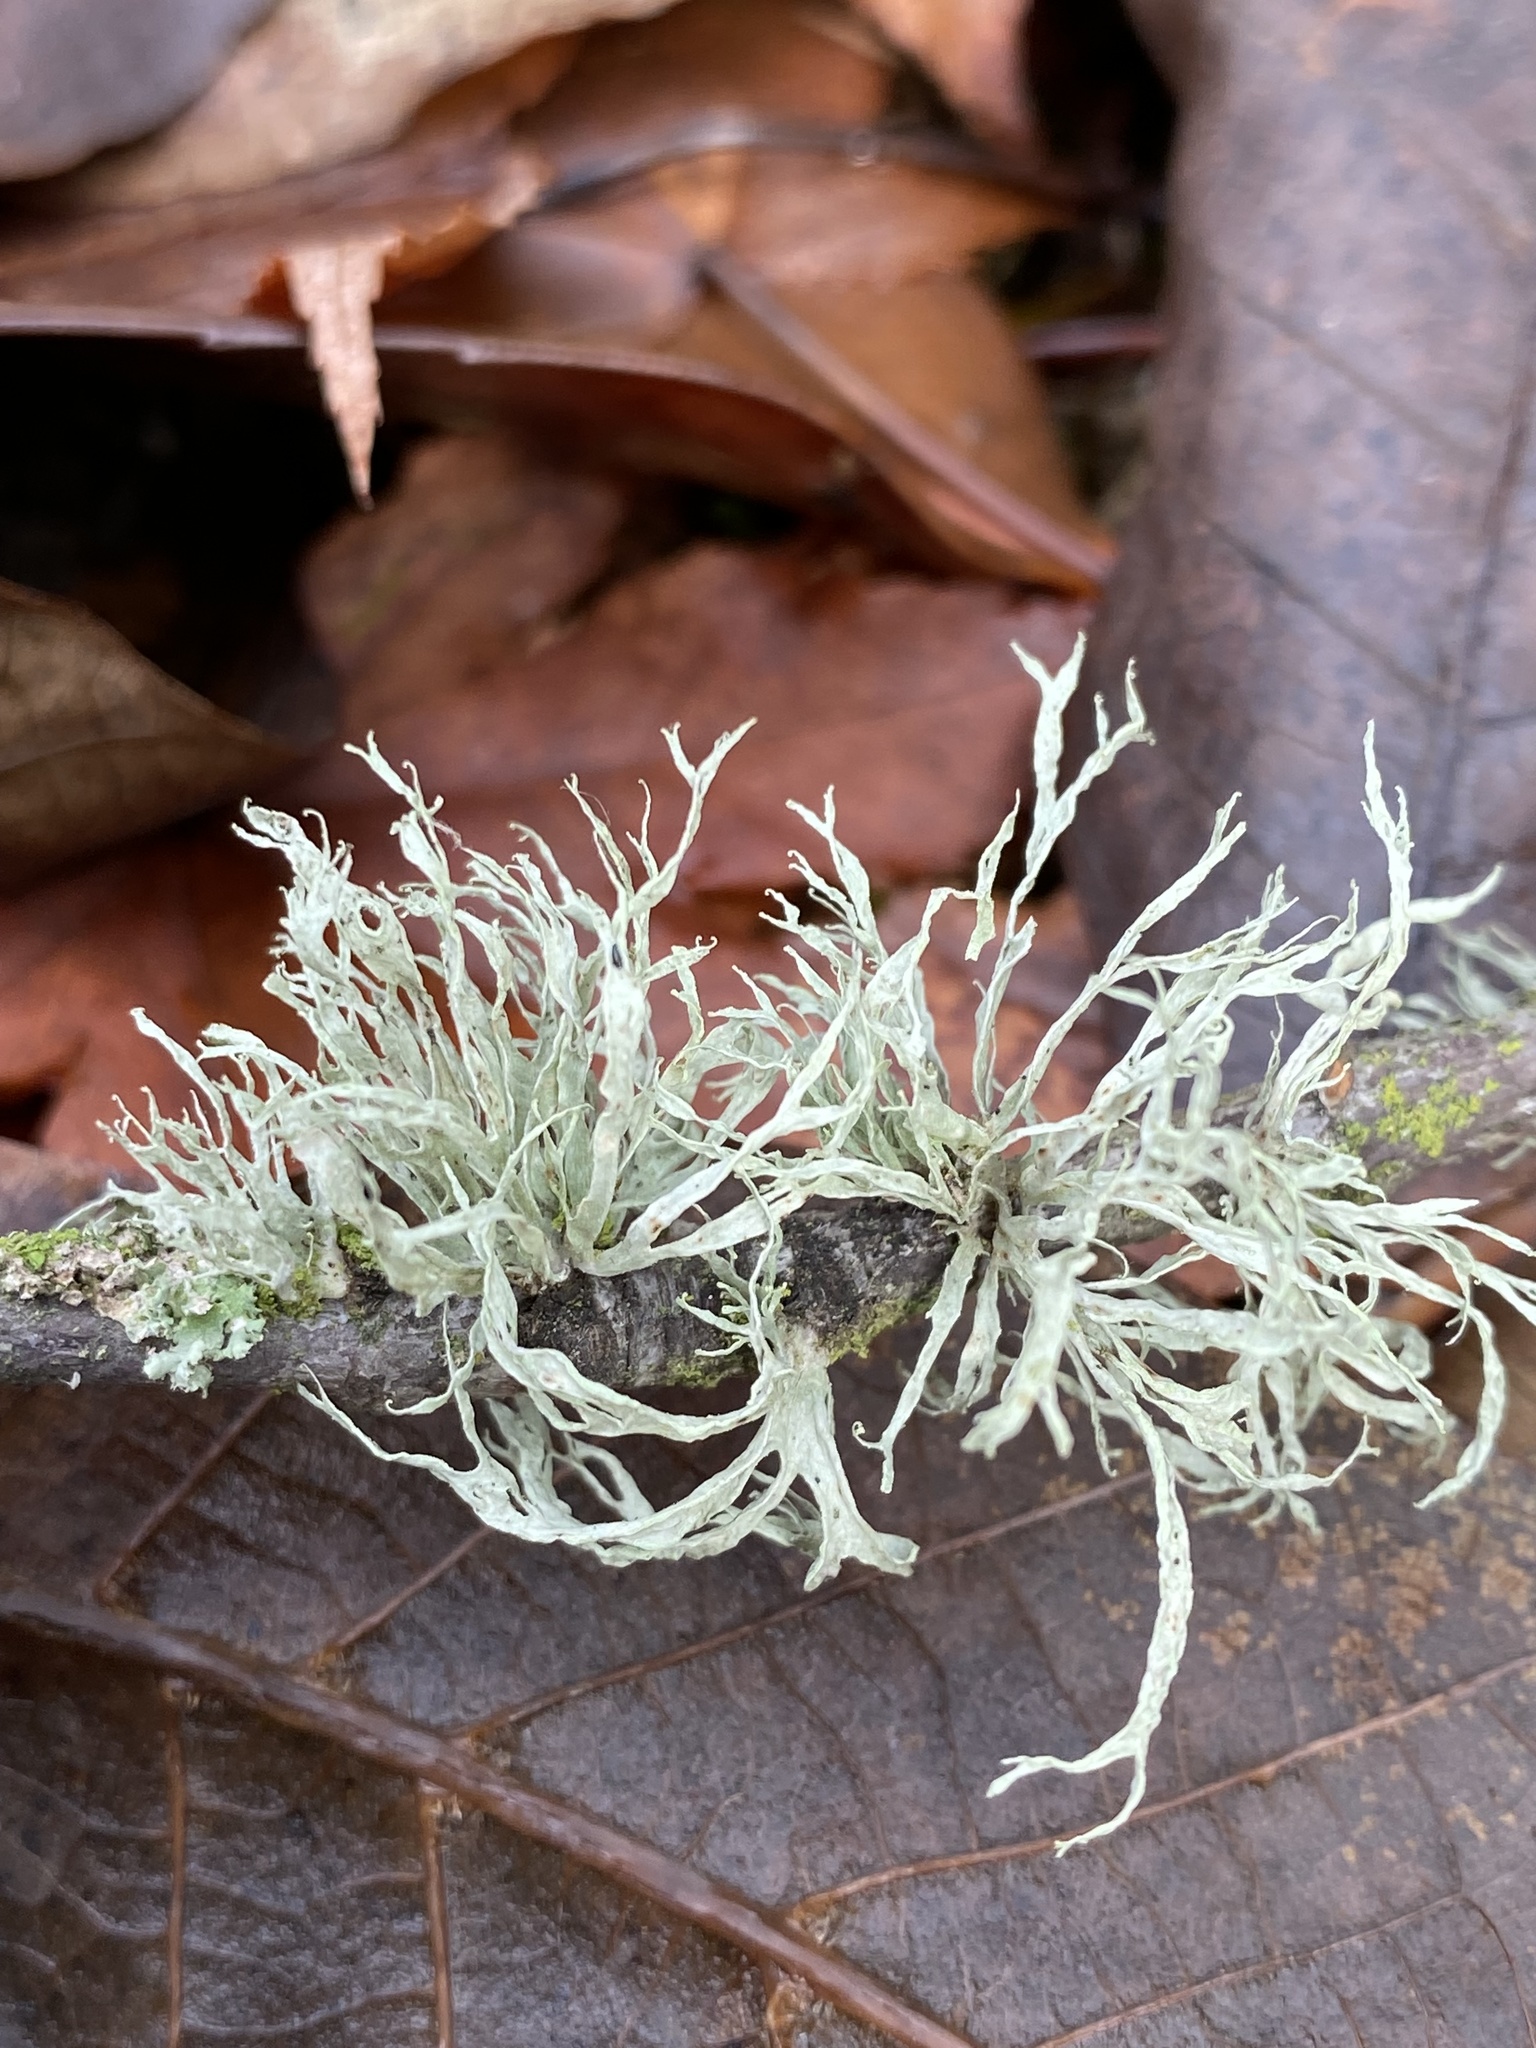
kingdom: Fungi
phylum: Ascomycota
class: Lecanoromycetes
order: Lecanorales
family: Ramalinaceae
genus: Ramalina
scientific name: Ramalina subleptocarpha
